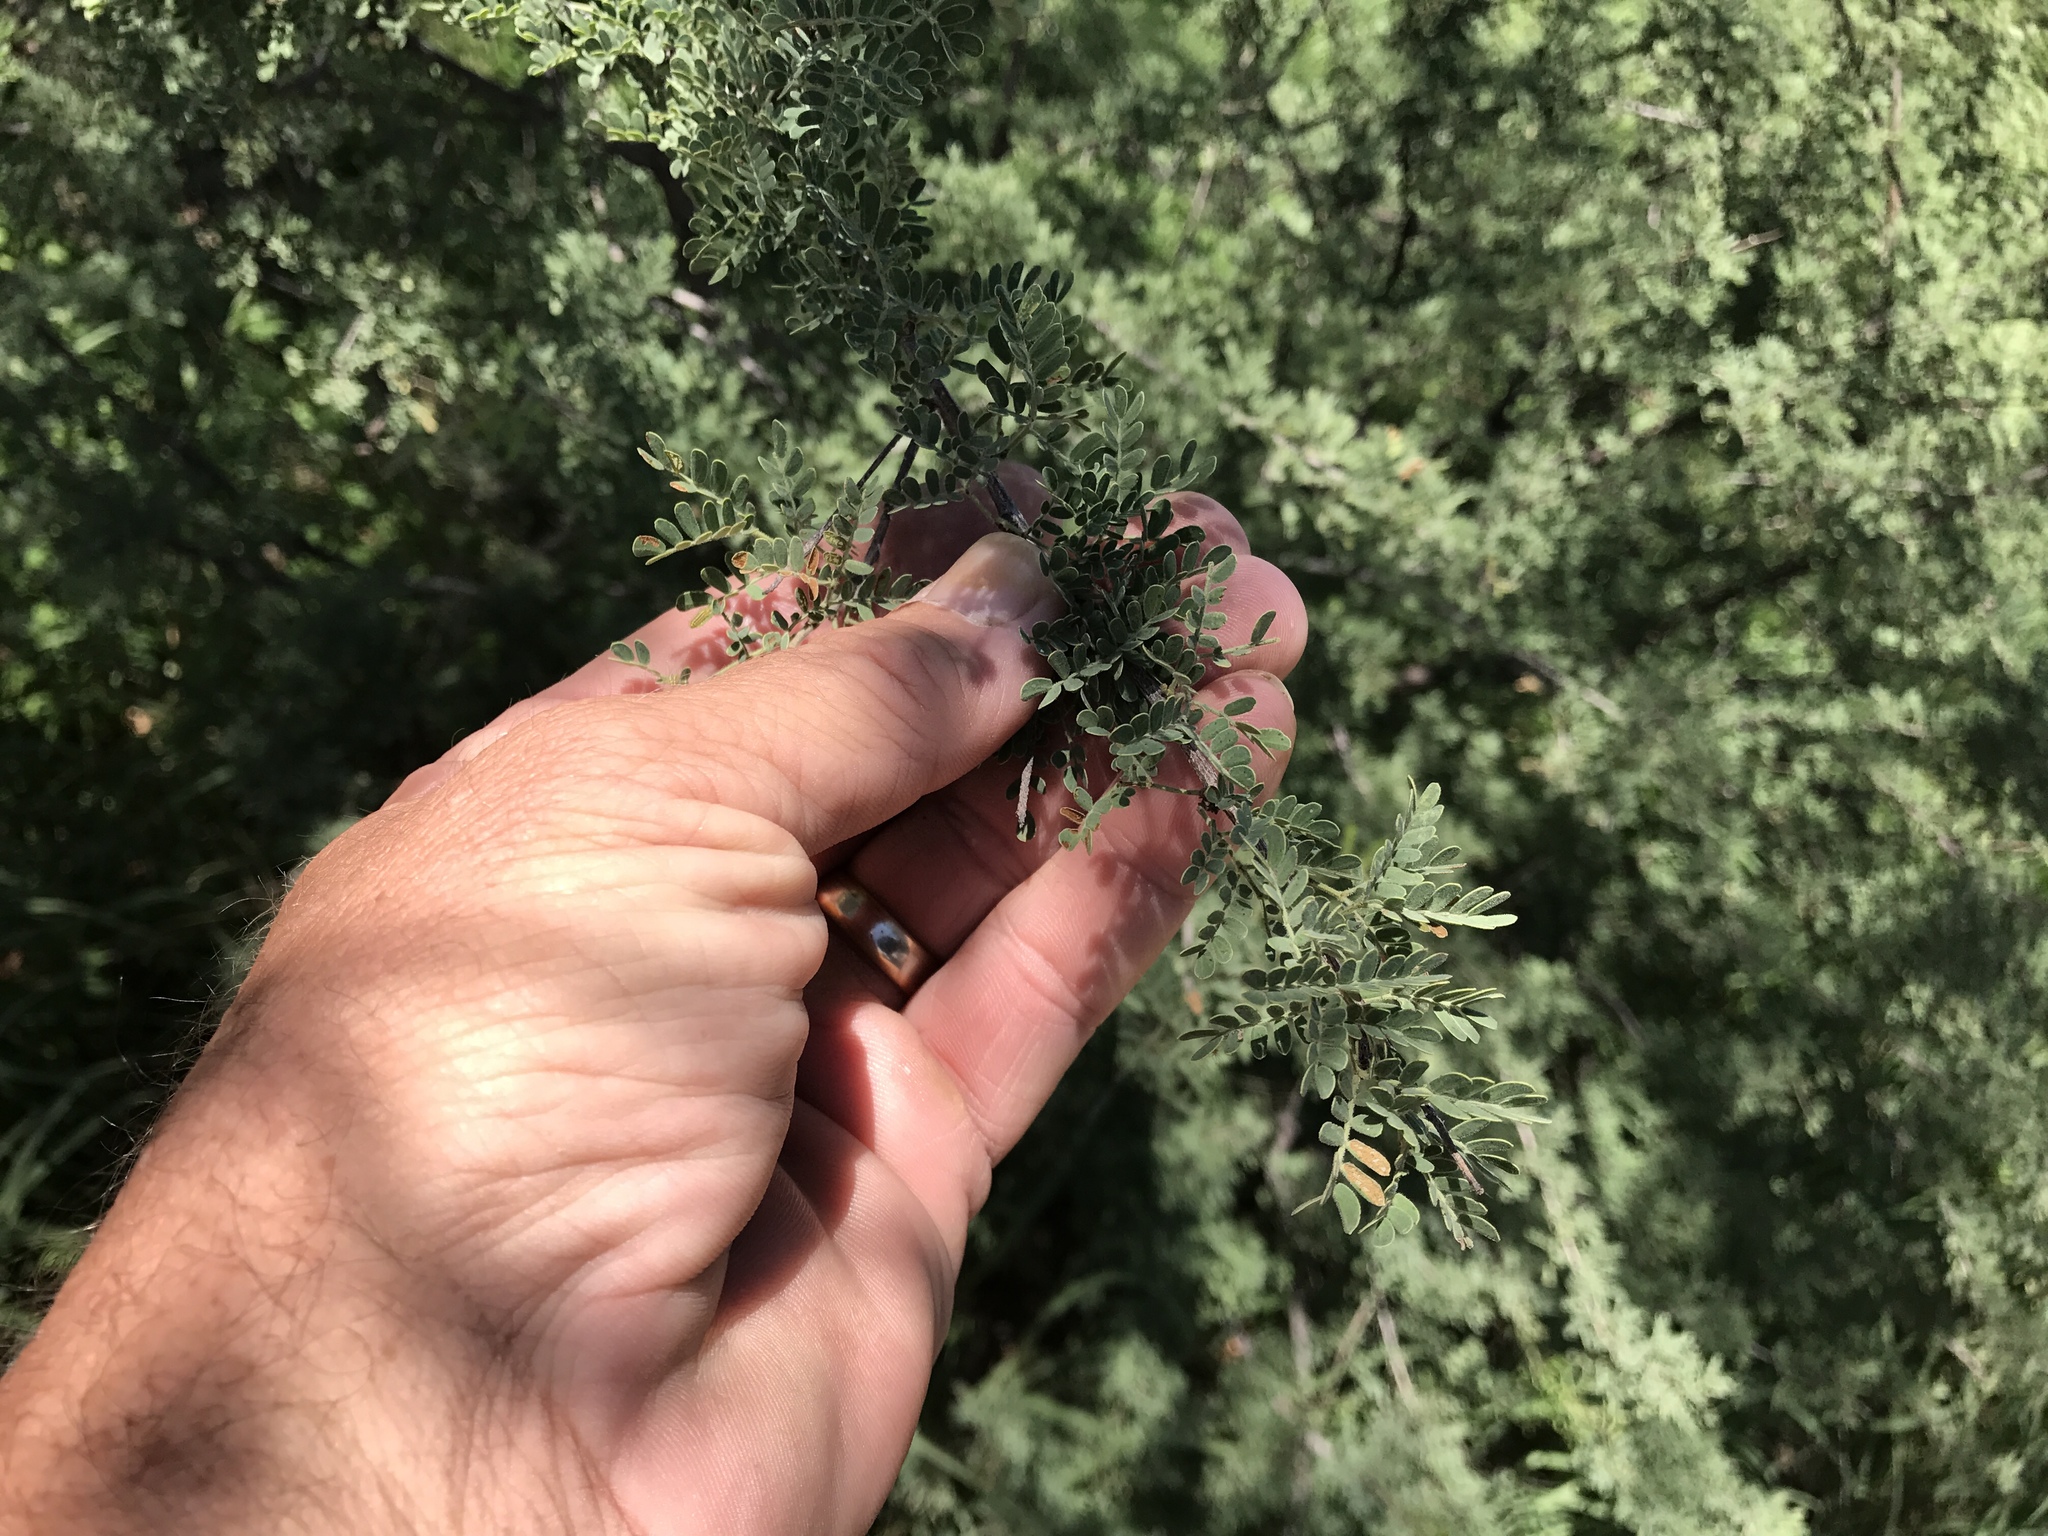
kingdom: Plantae
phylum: Tracheophyta
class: Magnoliopsida
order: Fabales
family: Fabaceae
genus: Senegalia
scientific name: Senegalia greggii
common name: Texas-mimosa
